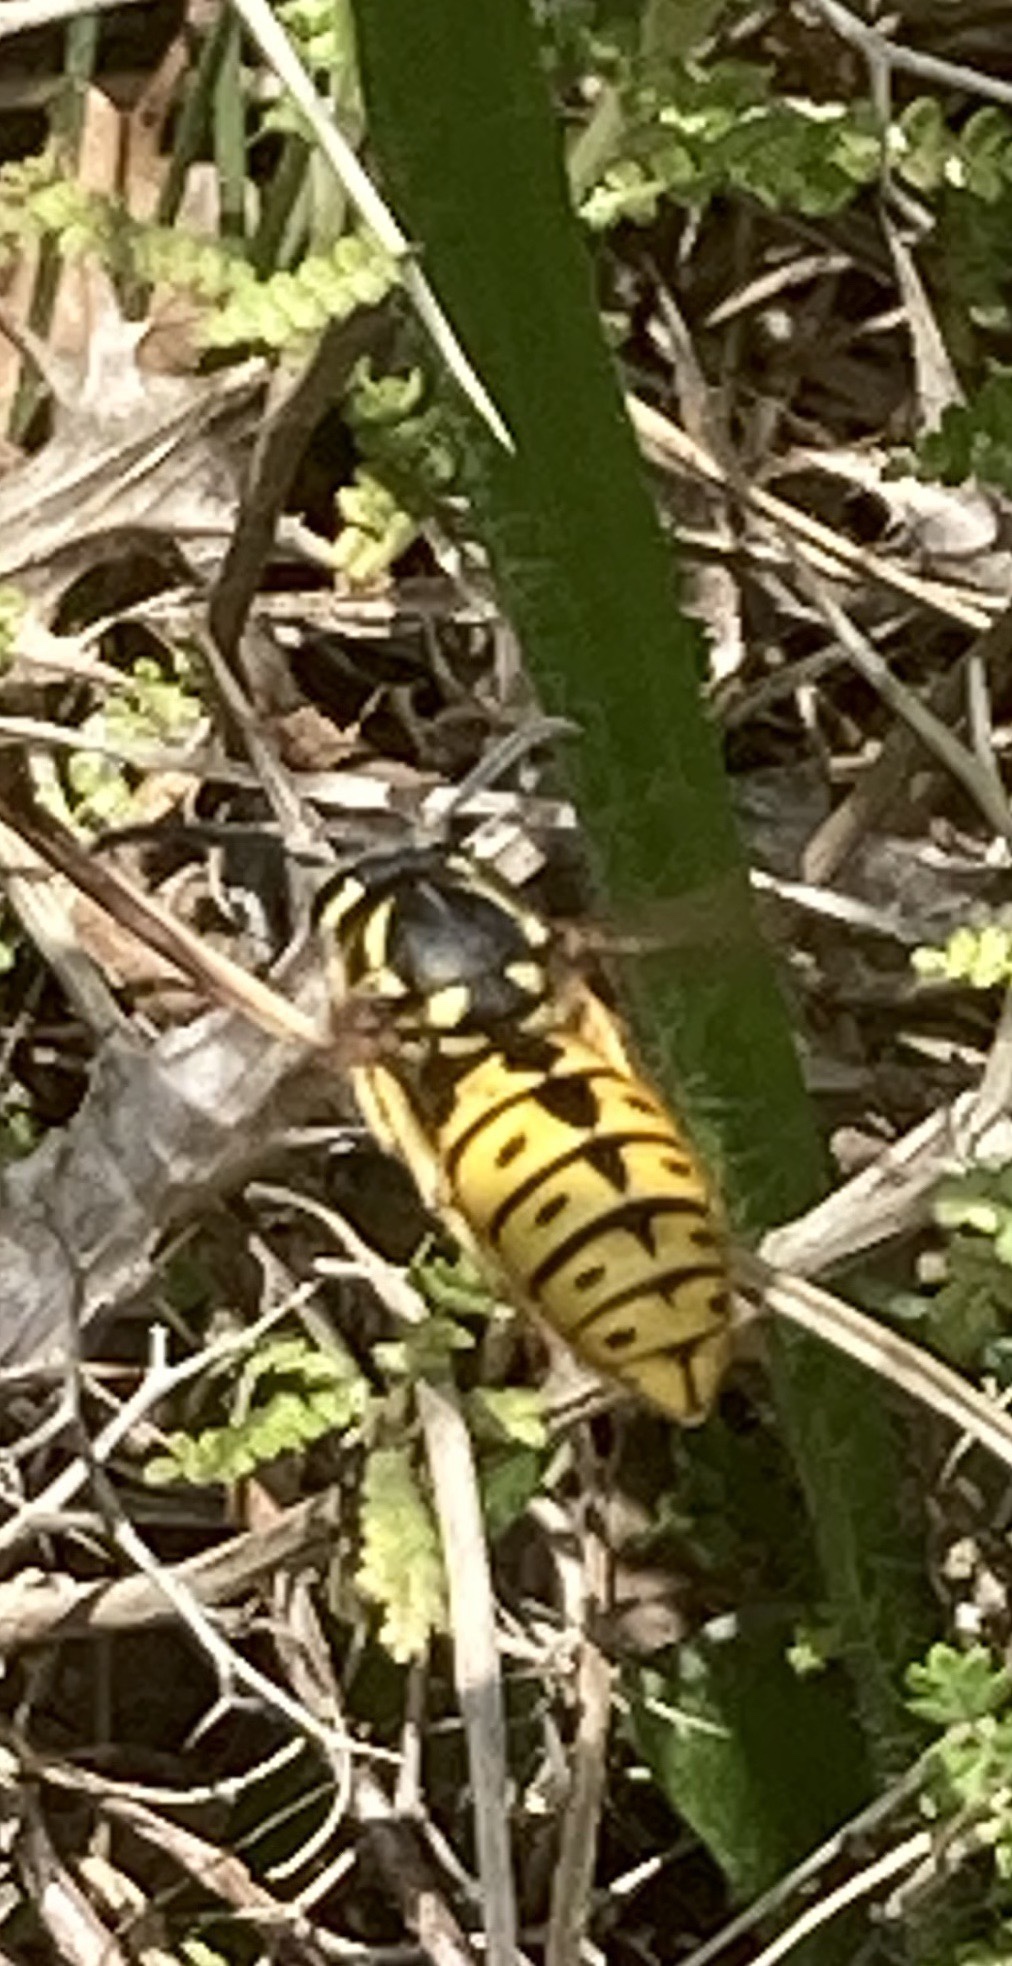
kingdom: Animalia
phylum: Arthropoda
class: Insecta
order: Hymenoptera
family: Vespidae
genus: Vespula
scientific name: Vespula germanica
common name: German wasp
